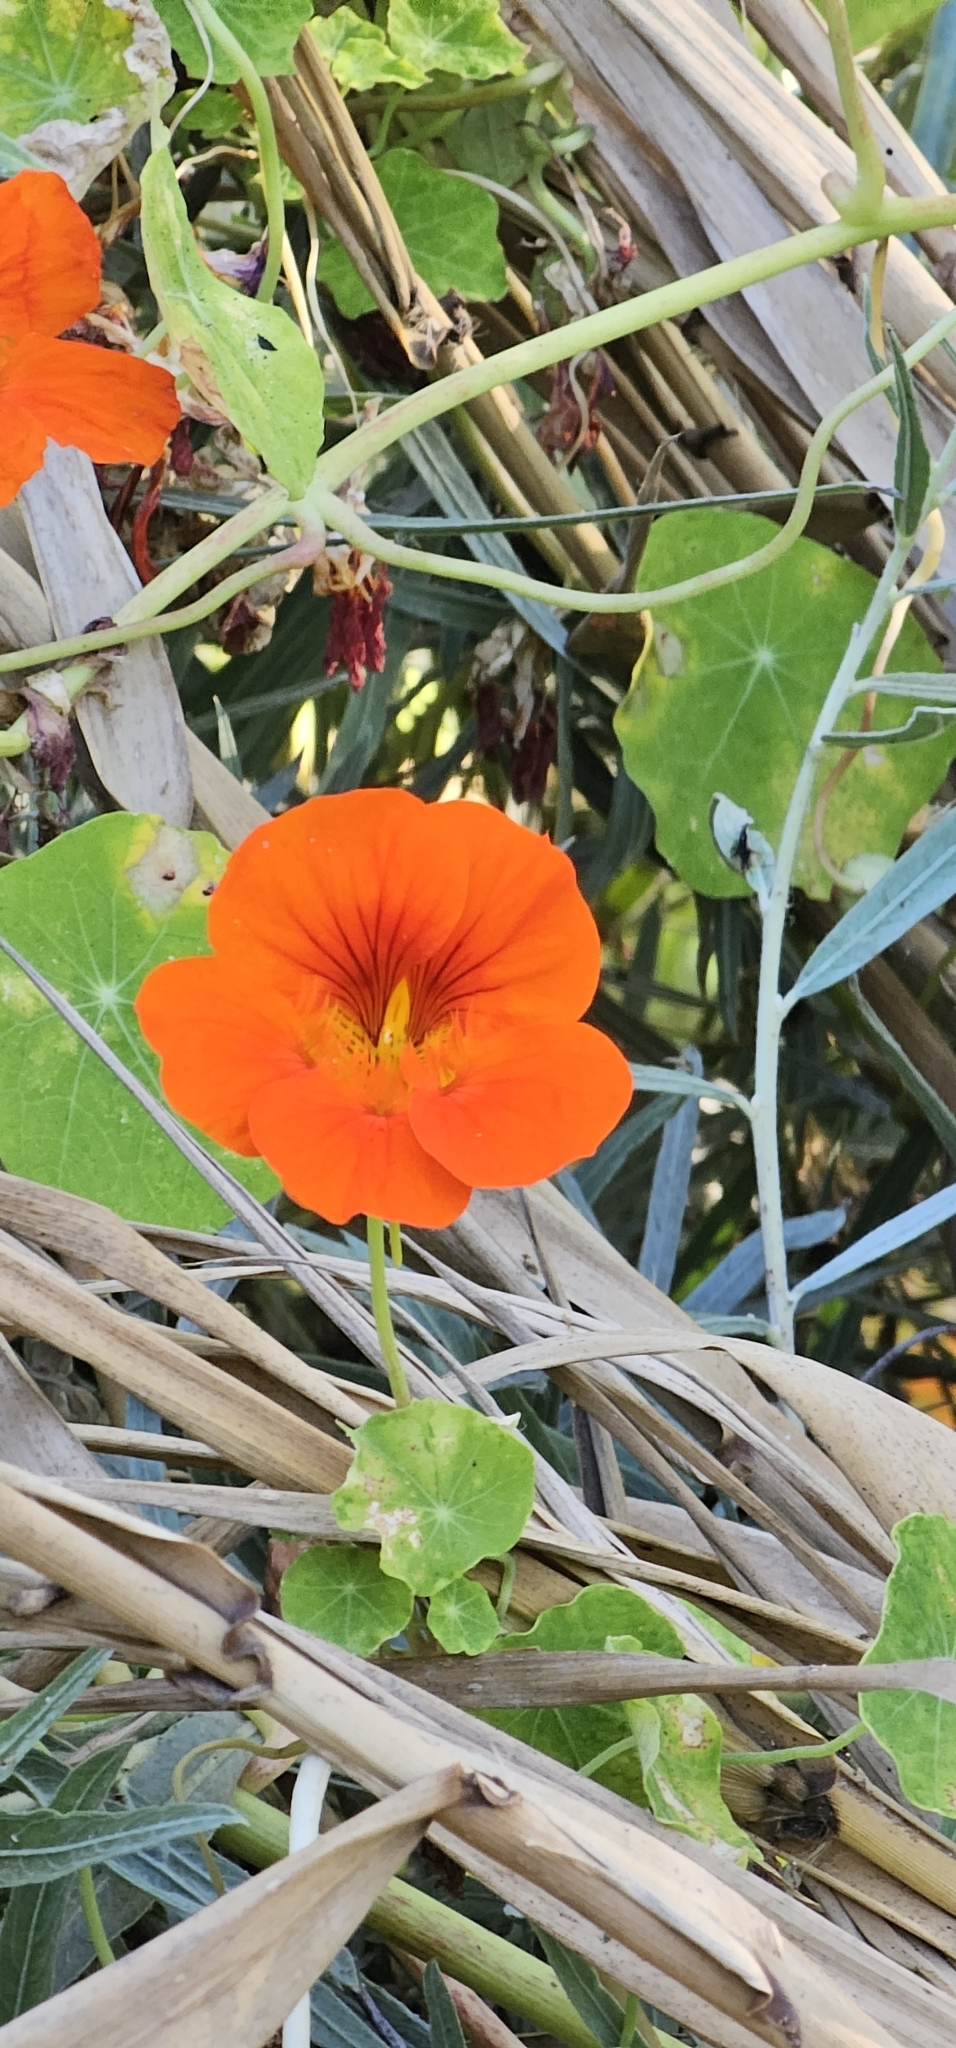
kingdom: Plantae
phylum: Tracheophyta
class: Magnoliopsida
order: Brassicales
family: Tropaeolaceae
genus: Tropaeolum
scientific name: Tropaeolum majus
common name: Nasturtium
